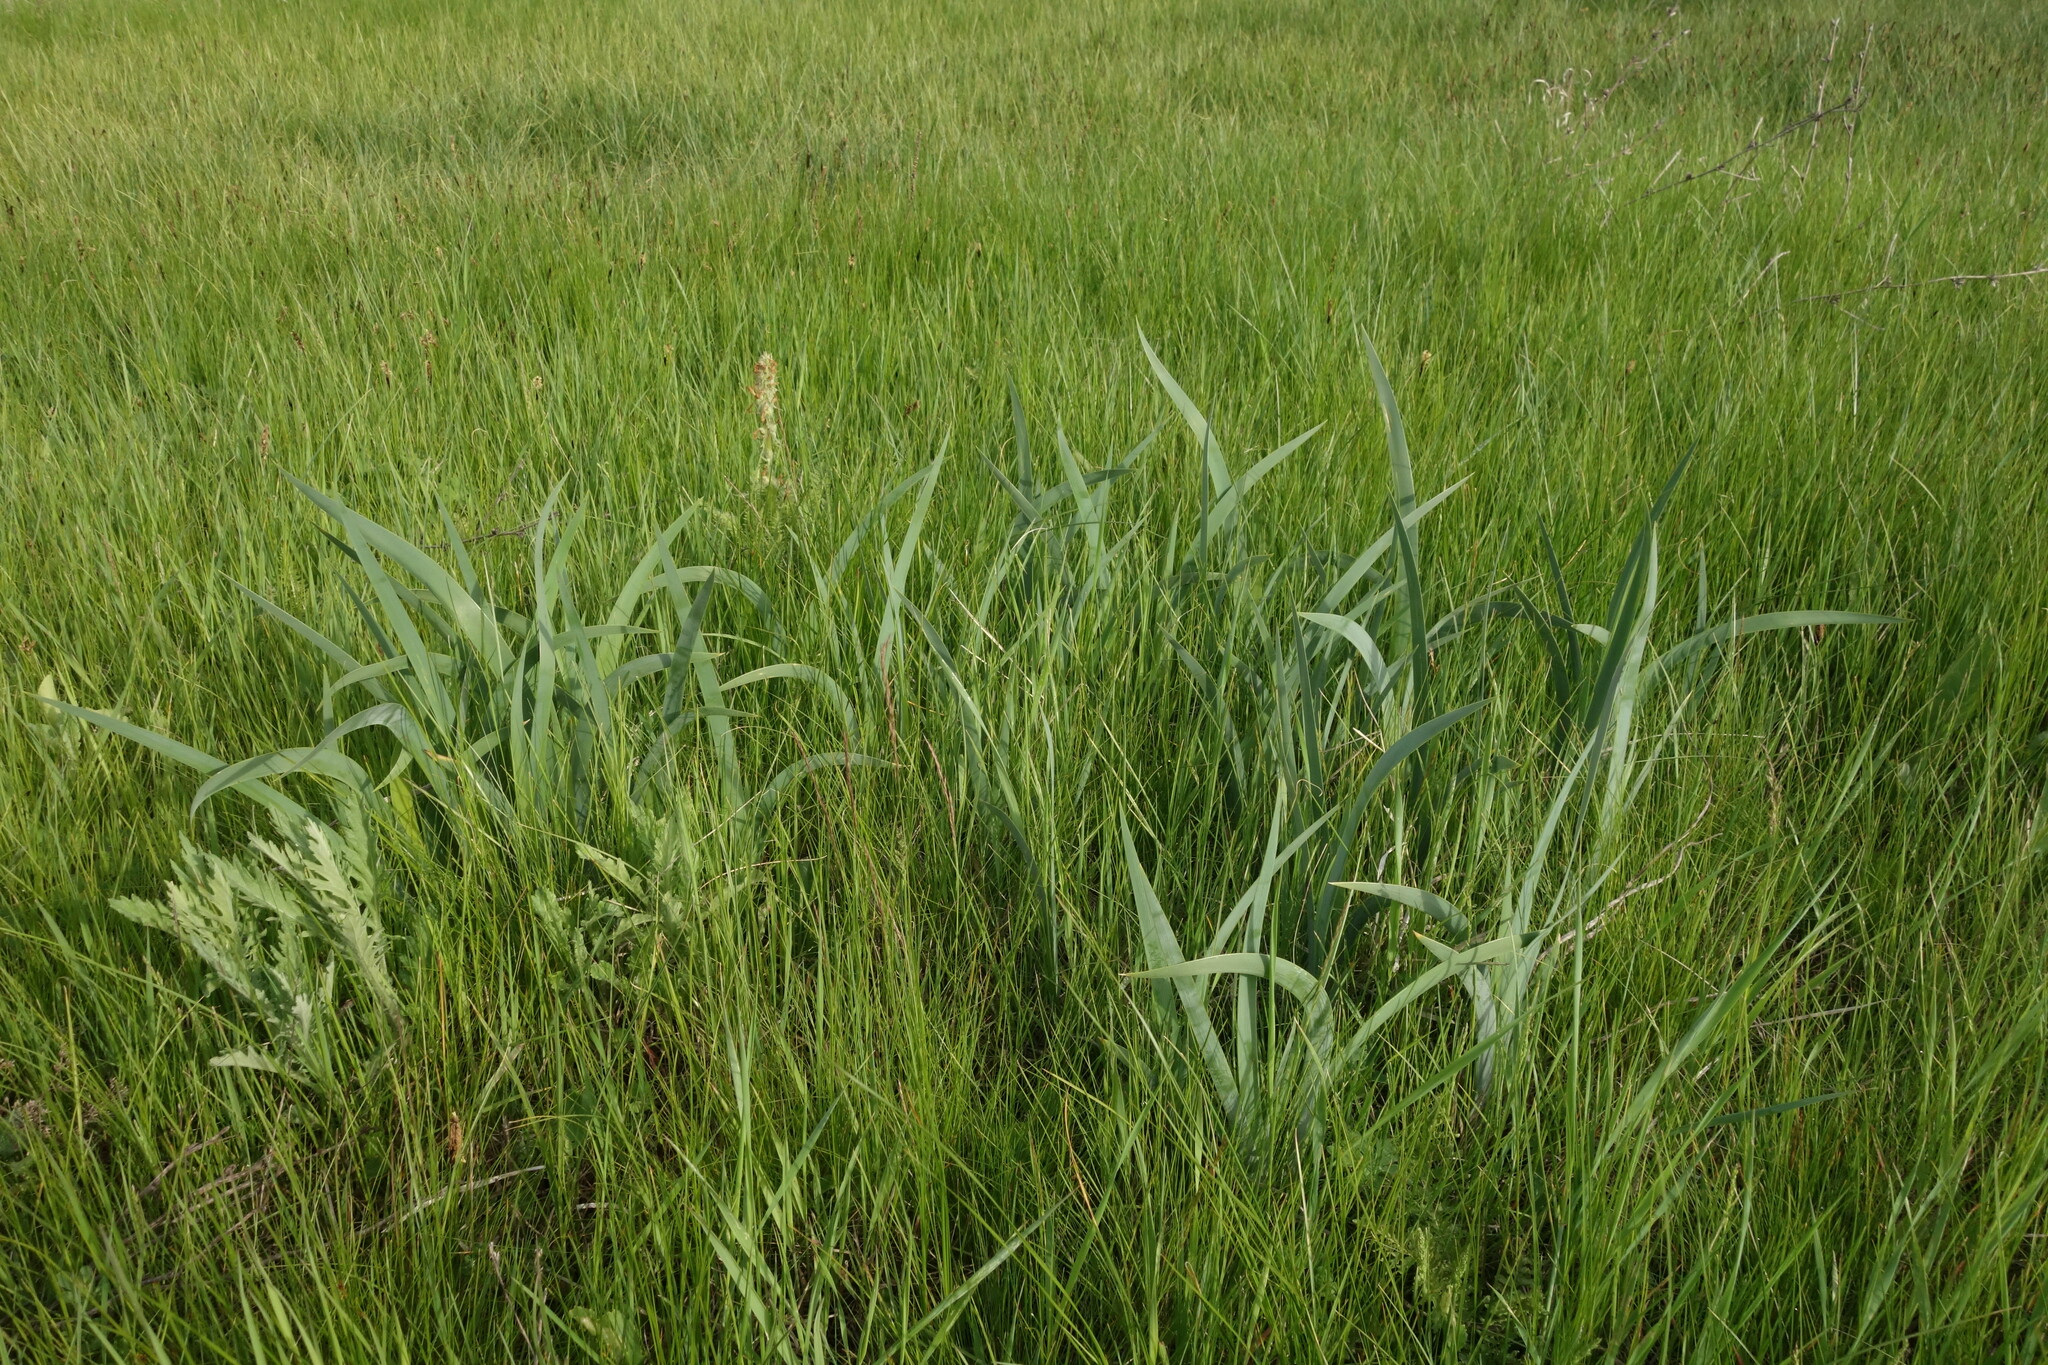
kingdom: Plantae
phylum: Tracheophyta
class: Liliopsida
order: Asparagales
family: Iridaceae
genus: Iris
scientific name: Iris halophila
